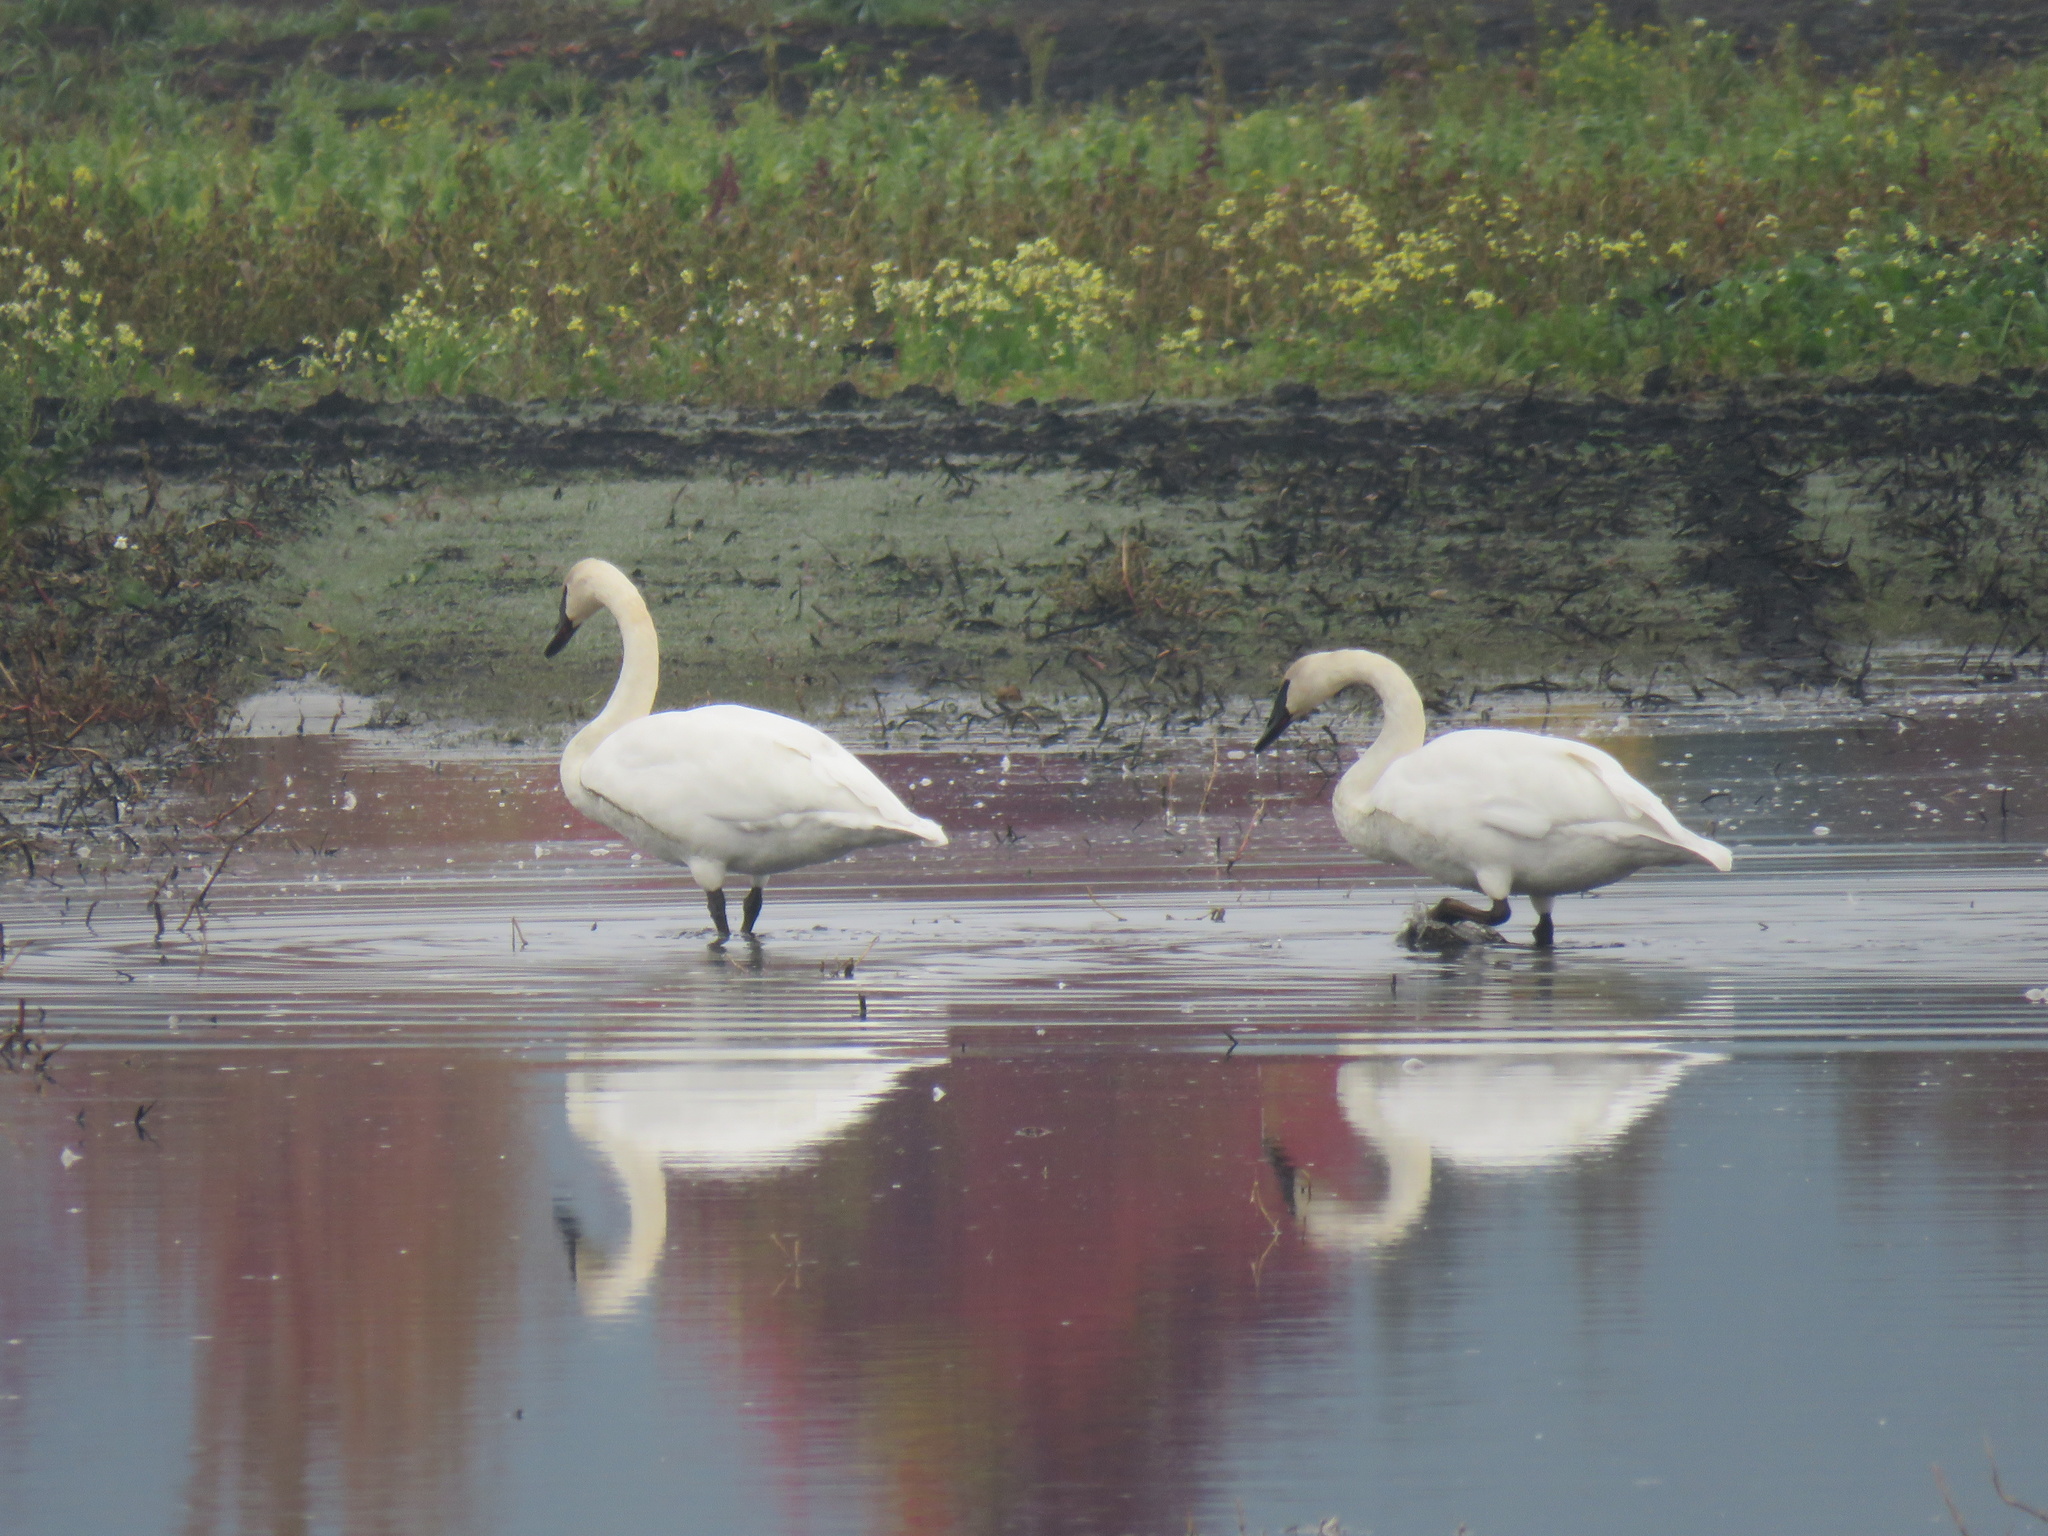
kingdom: Animalia
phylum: Chordata
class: Aves
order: Anseriformes
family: Anatidae
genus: Cygnus
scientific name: Cygnus buccinator
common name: Trumpeter swan
